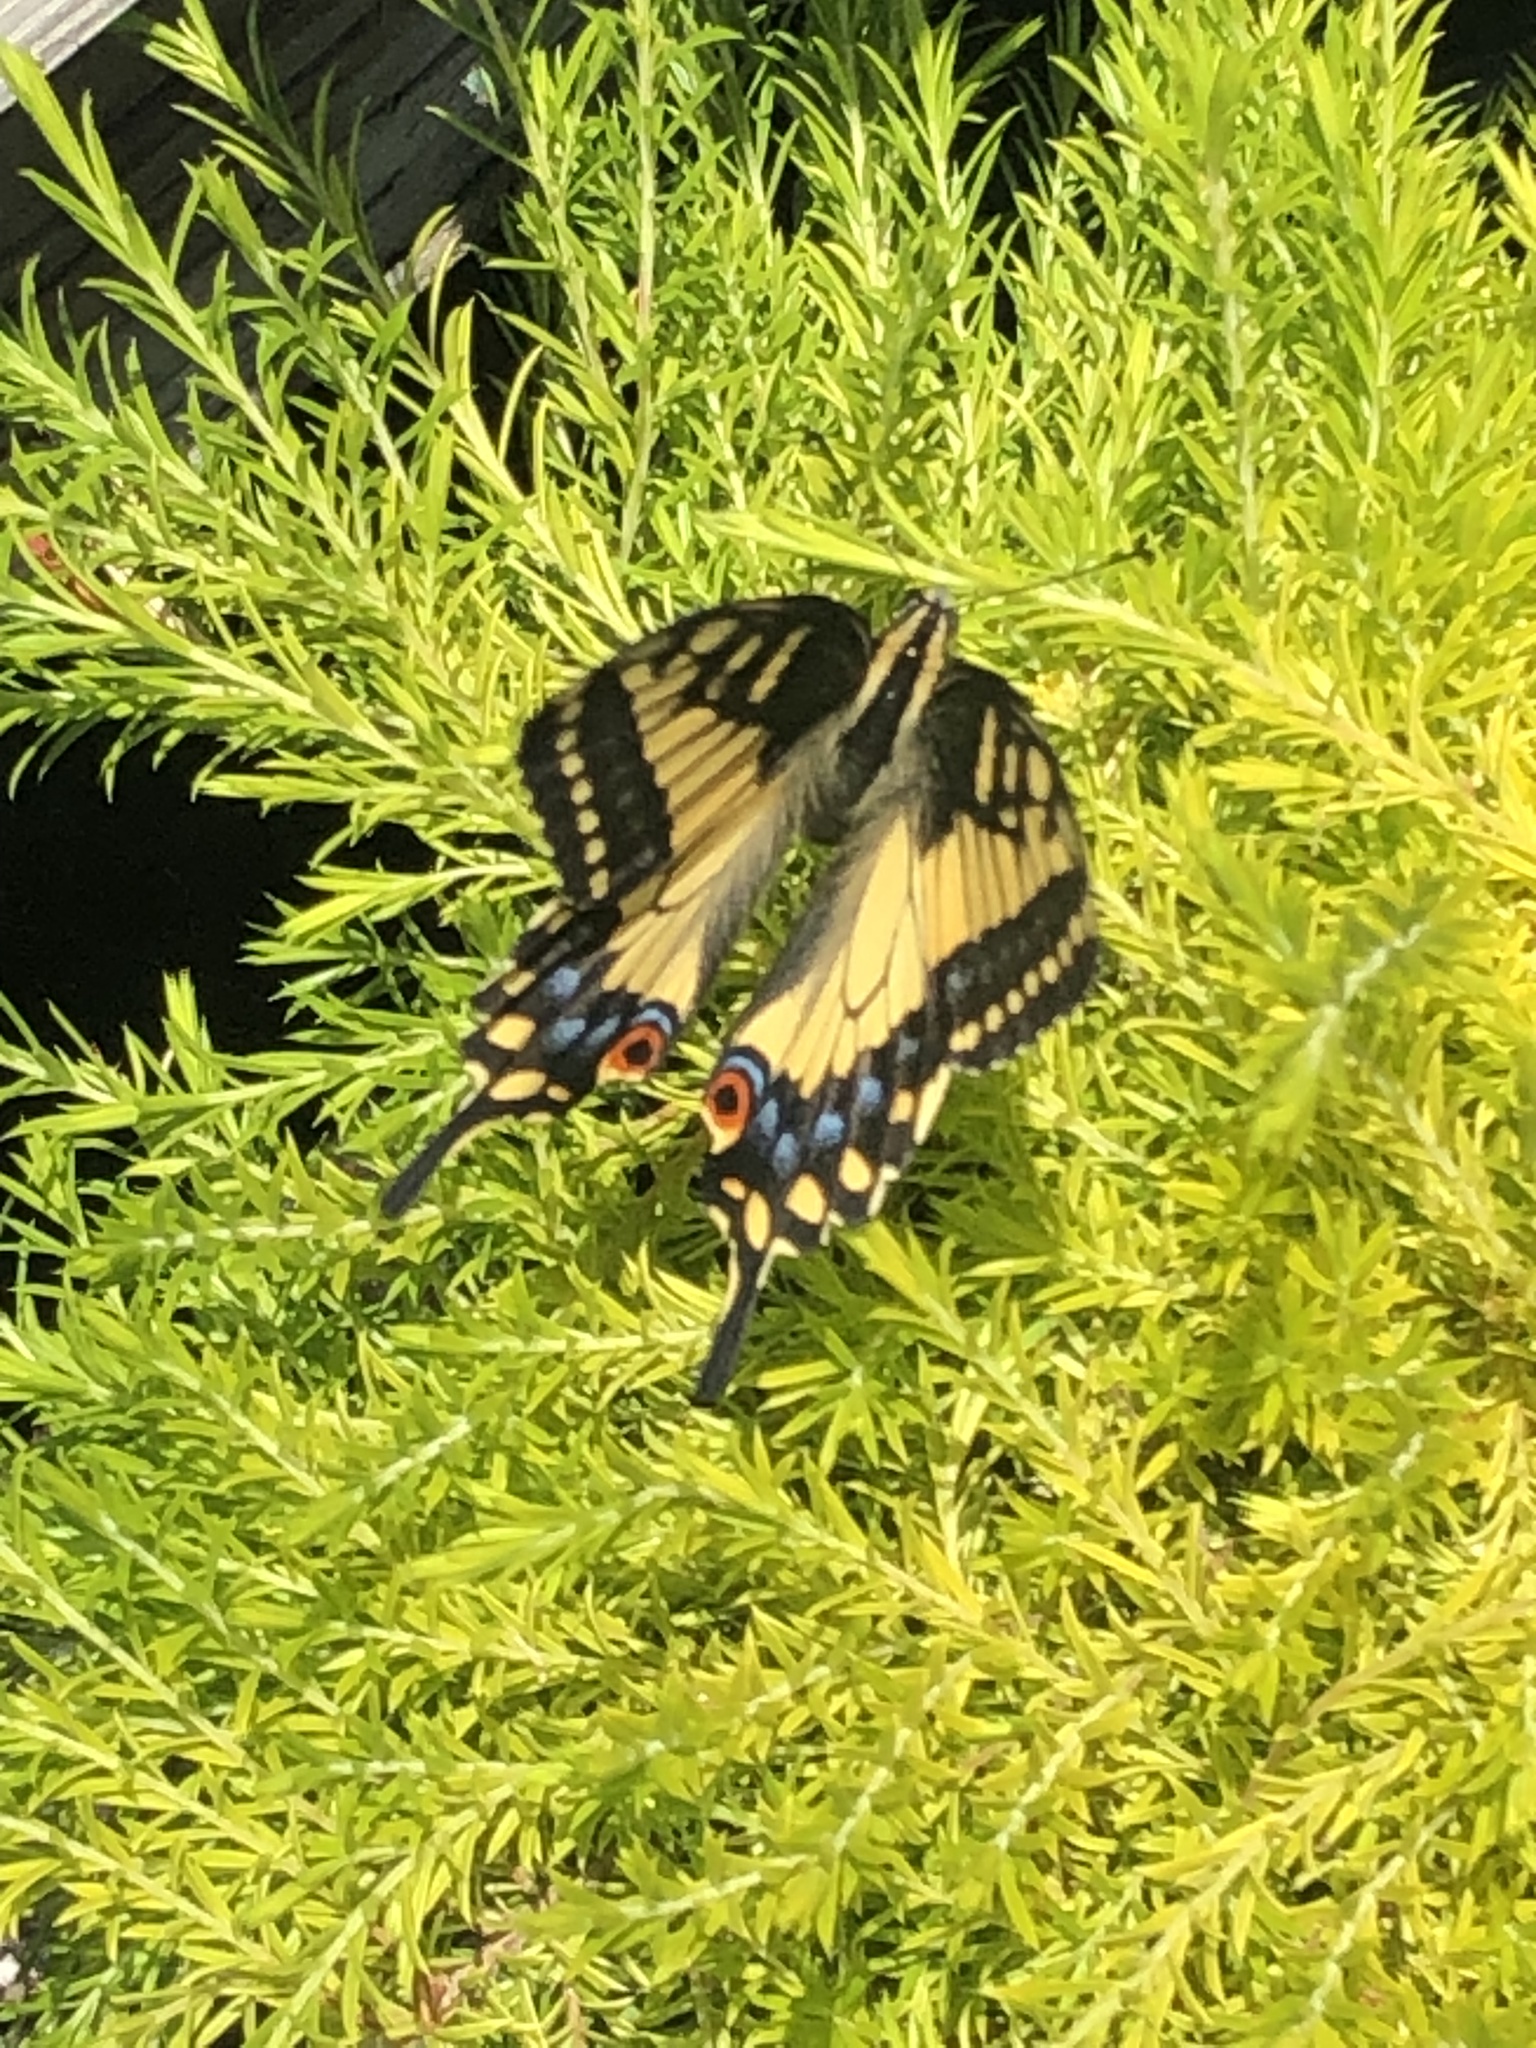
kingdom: Animalia
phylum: Arthropoda
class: Insecta
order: Lepidoptera
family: Papilionidae
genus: Papilio
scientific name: Papilio zelicaon
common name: Anise swallowtail
